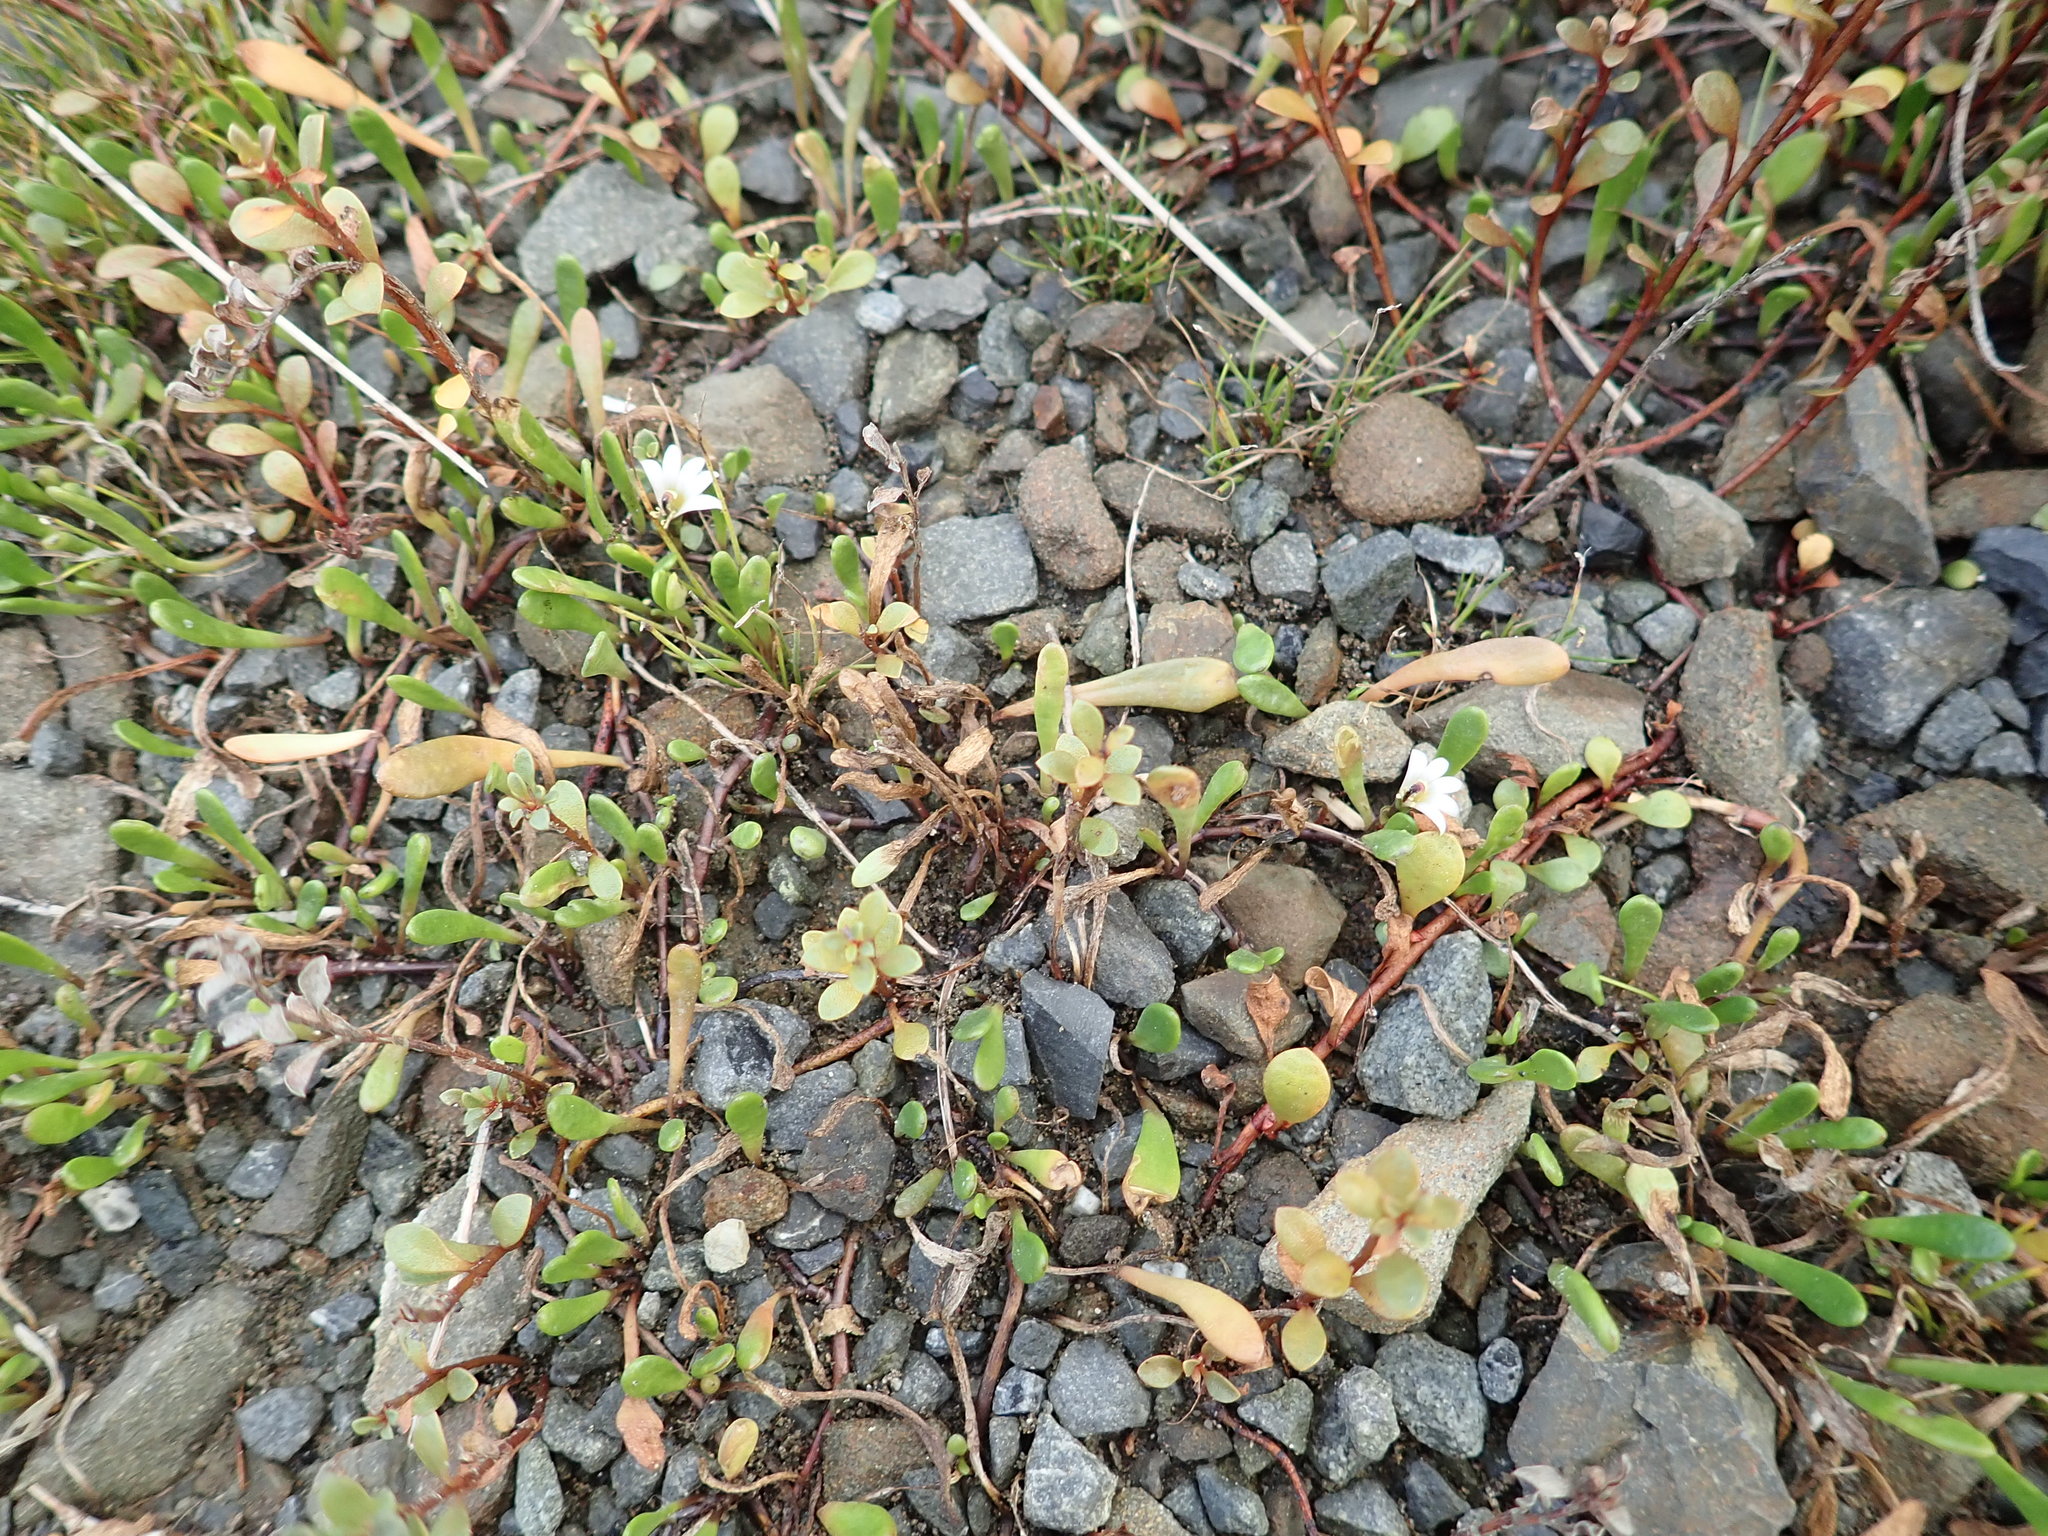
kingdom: Plantae
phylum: Tracheophyta
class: Magnoliopsida
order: Asterales
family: Goodeniaceae
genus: Goodenia
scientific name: Goodenia radicans
